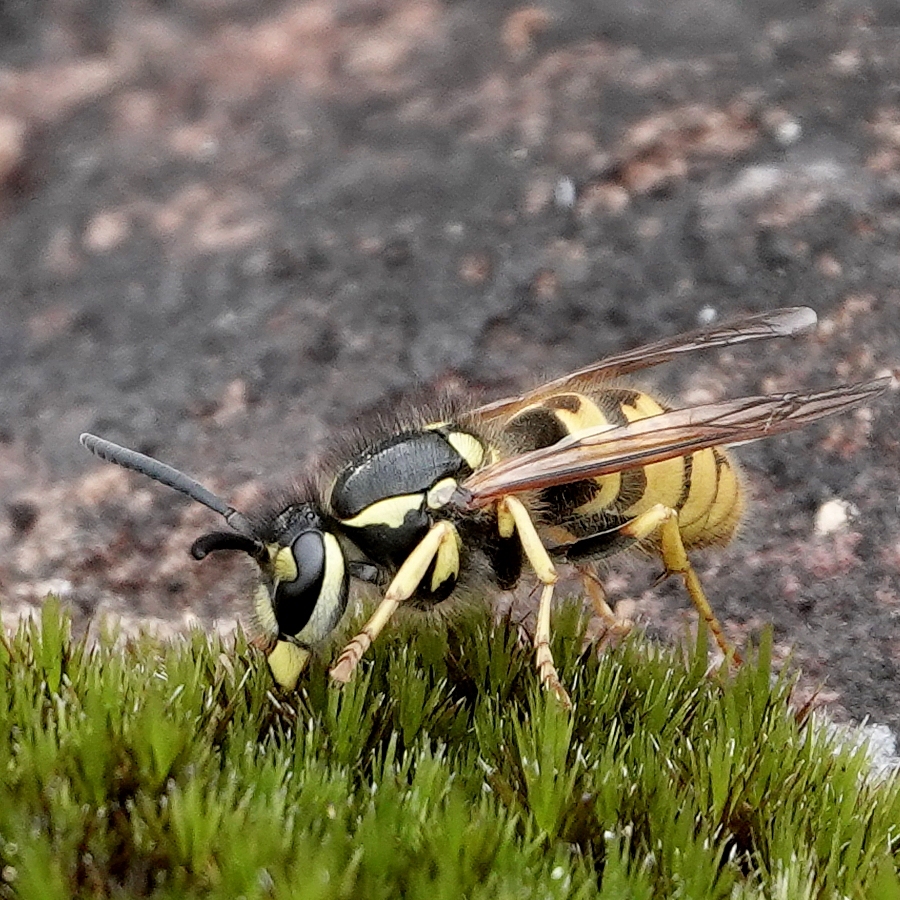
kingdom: Animalia
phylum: Arthropoda
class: Insecta
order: Hymenoptera
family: Vespidae
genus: Vespula
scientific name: Vespula germanica
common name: German wasp
